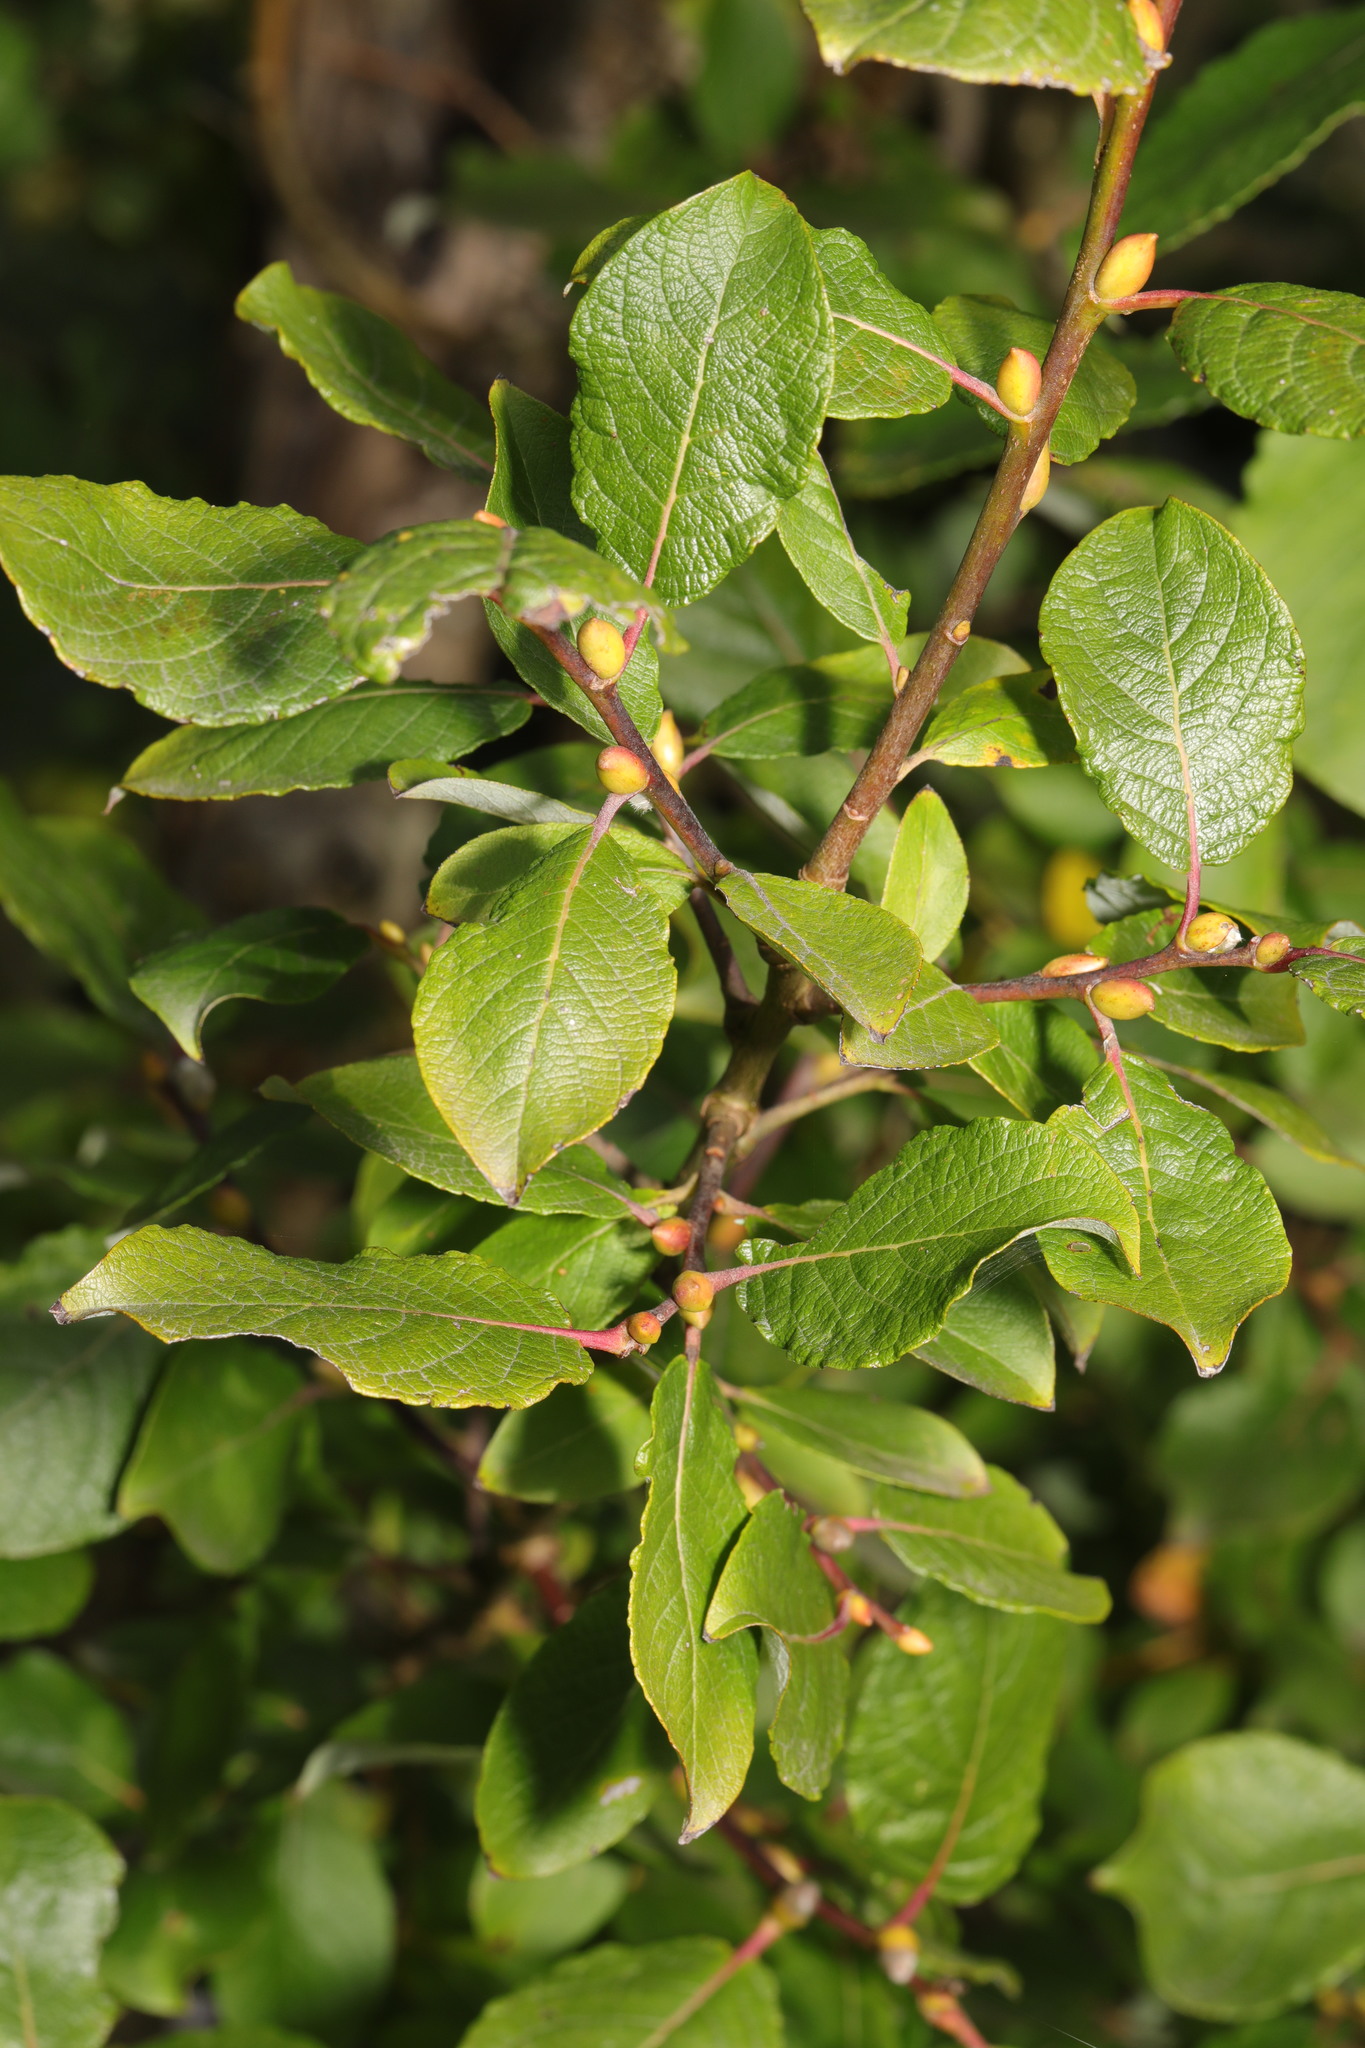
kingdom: Plantae
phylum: Tracheophyta
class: Magnoliopsida
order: Malpighiales
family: Salicaceae
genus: Salix
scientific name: Salix caprea
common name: Goat willow
